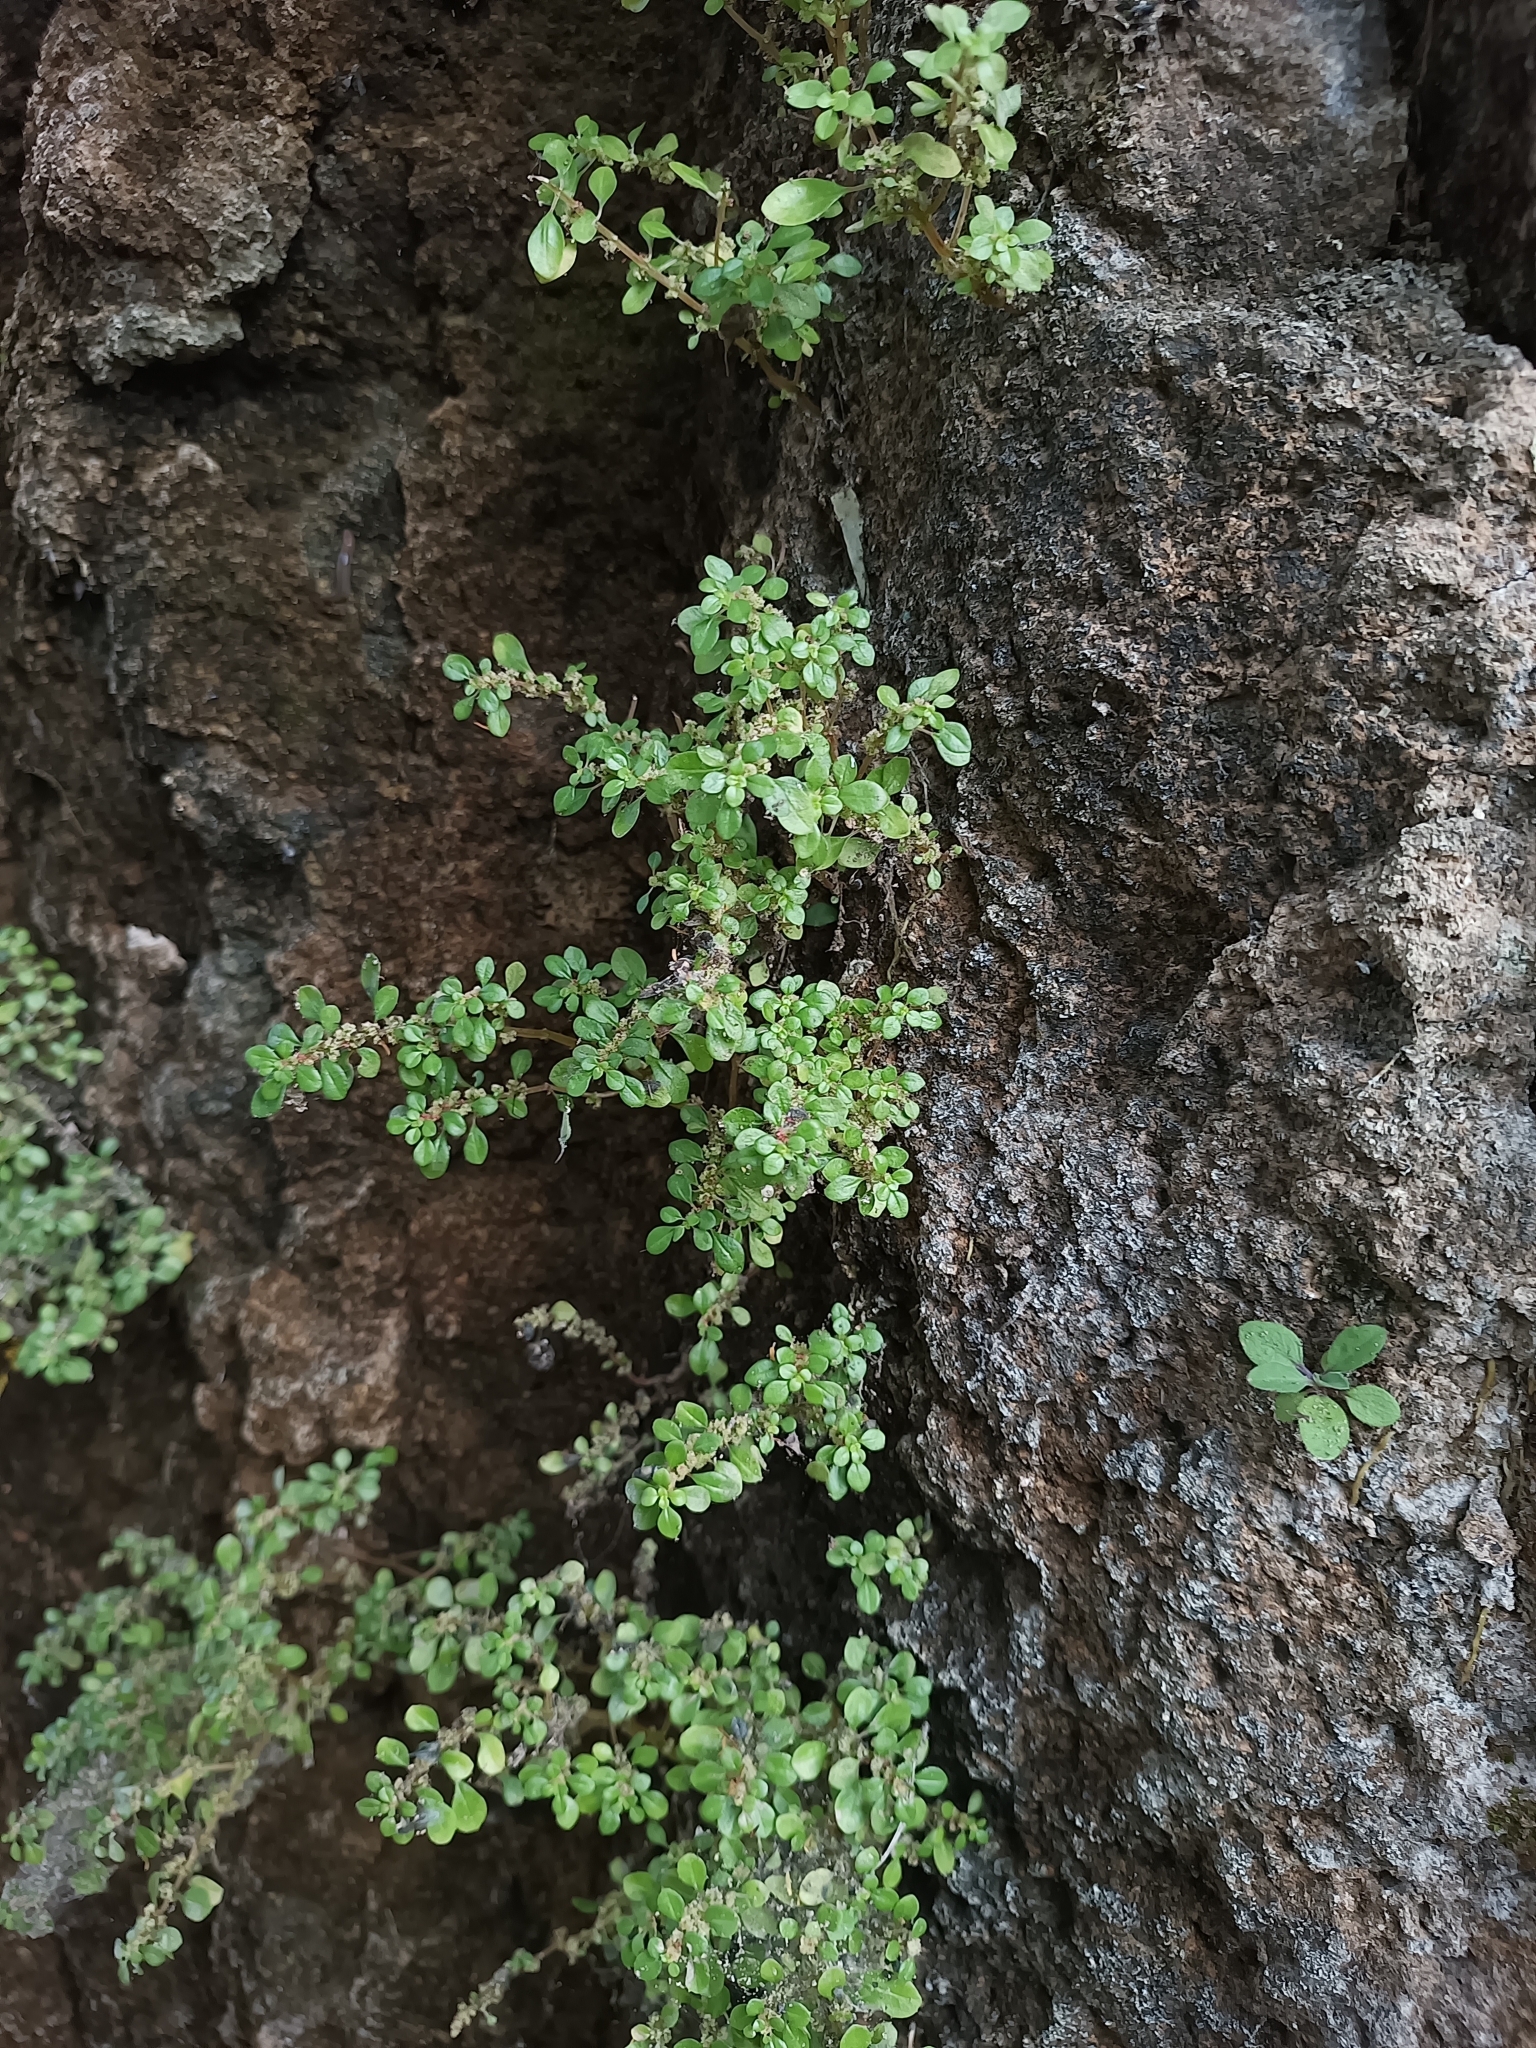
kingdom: Plantae
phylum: Tracheophyta
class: Magnoliopsida
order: Rosales
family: Urticaceae
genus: Pilea
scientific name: Pilea microphylla
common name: Artillery-plant
